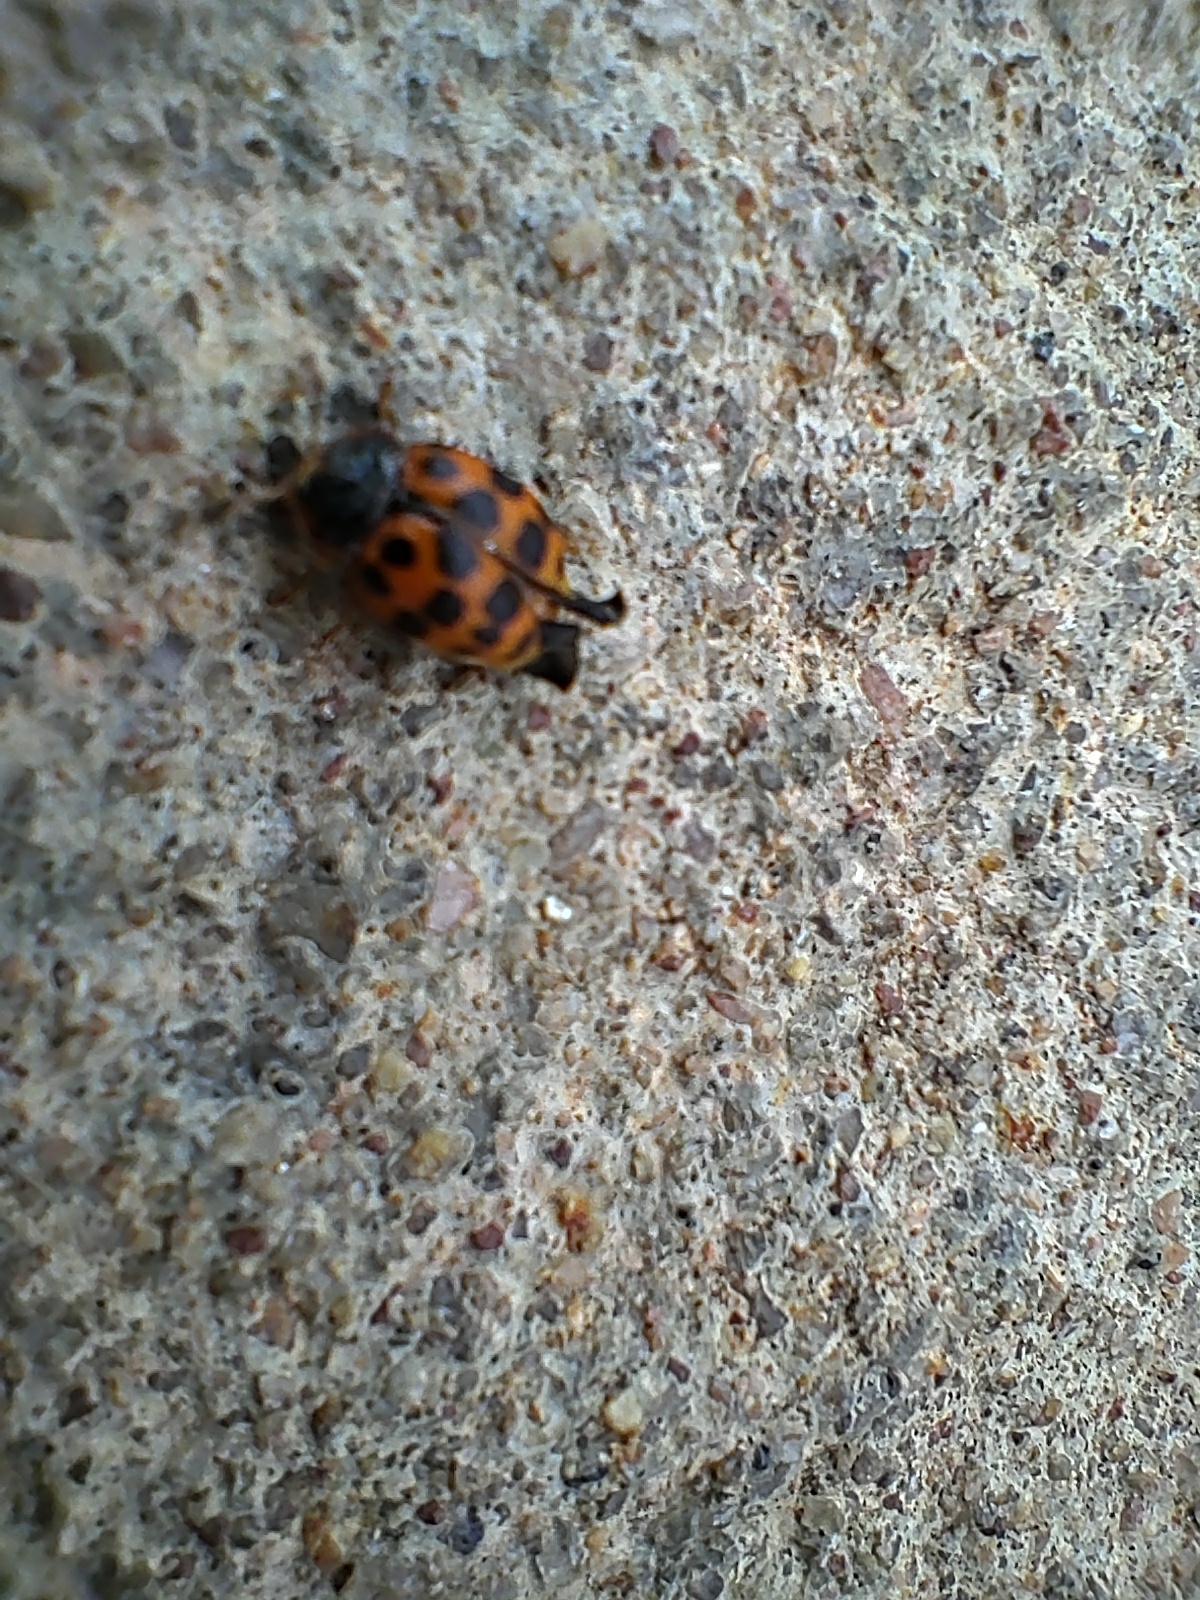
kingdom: Animalia
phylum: Arthropoda
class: Insecta
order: Coleoptera
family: Coccinellidae
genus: Harmonia
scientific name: Harmonia axyridis
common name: Harlequin ladybird
